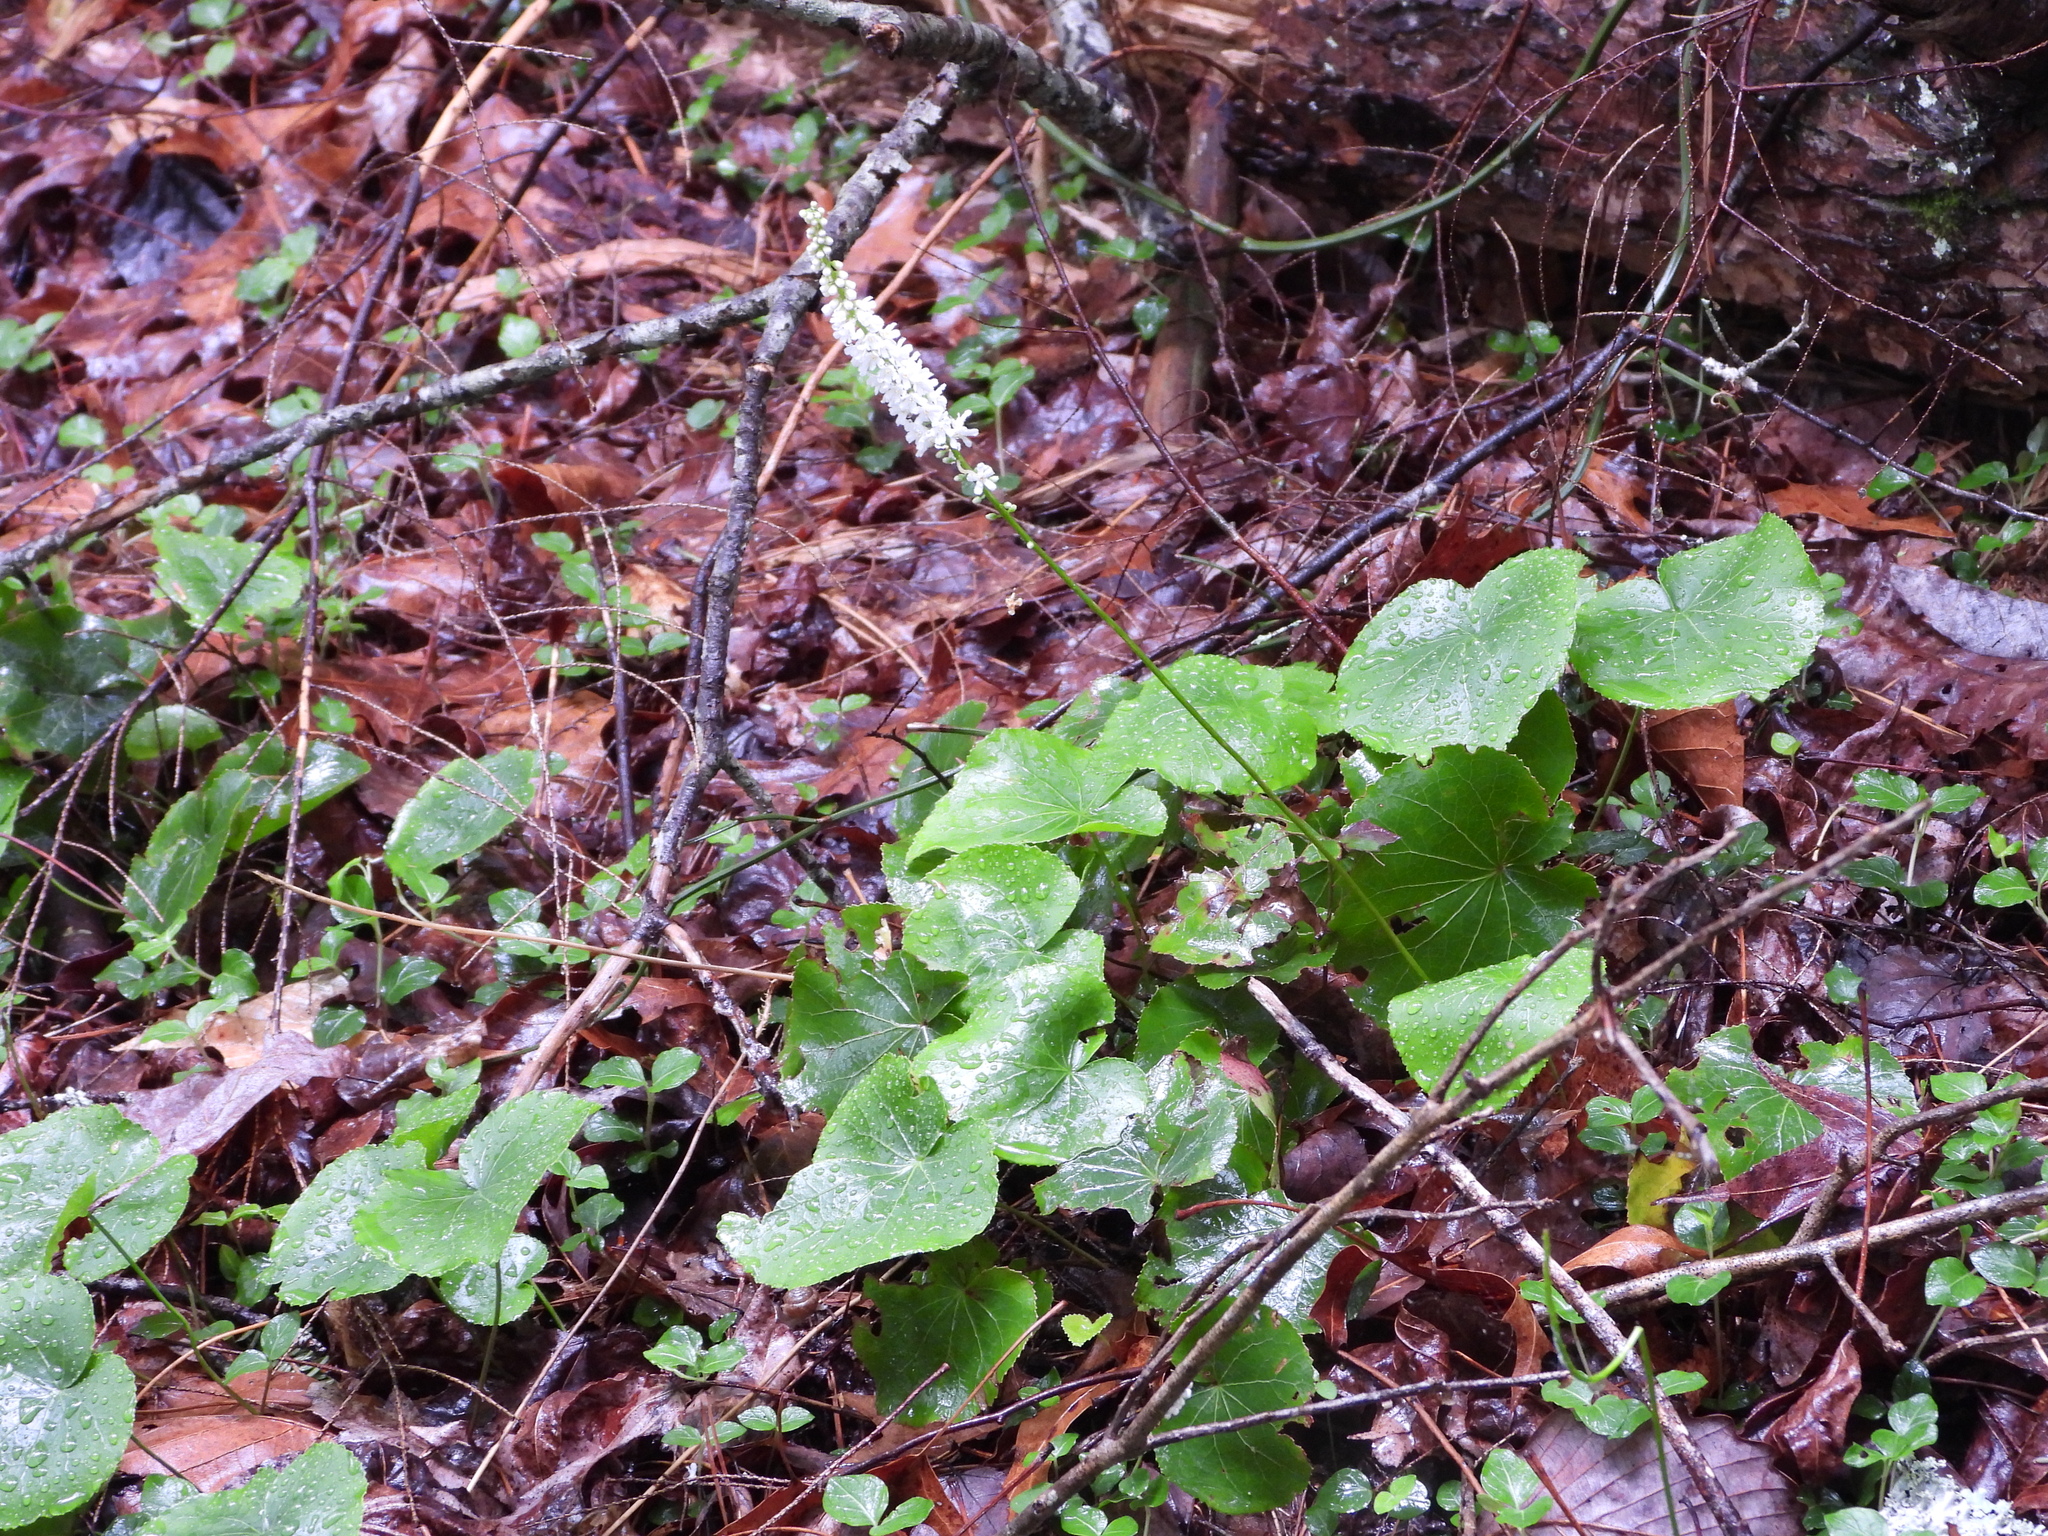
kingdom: Plantae
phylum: Tracheophyta
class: Magnoliopsida
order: Ericales
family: Diapensiaceae
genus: Galax
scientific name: Galax urceolata
